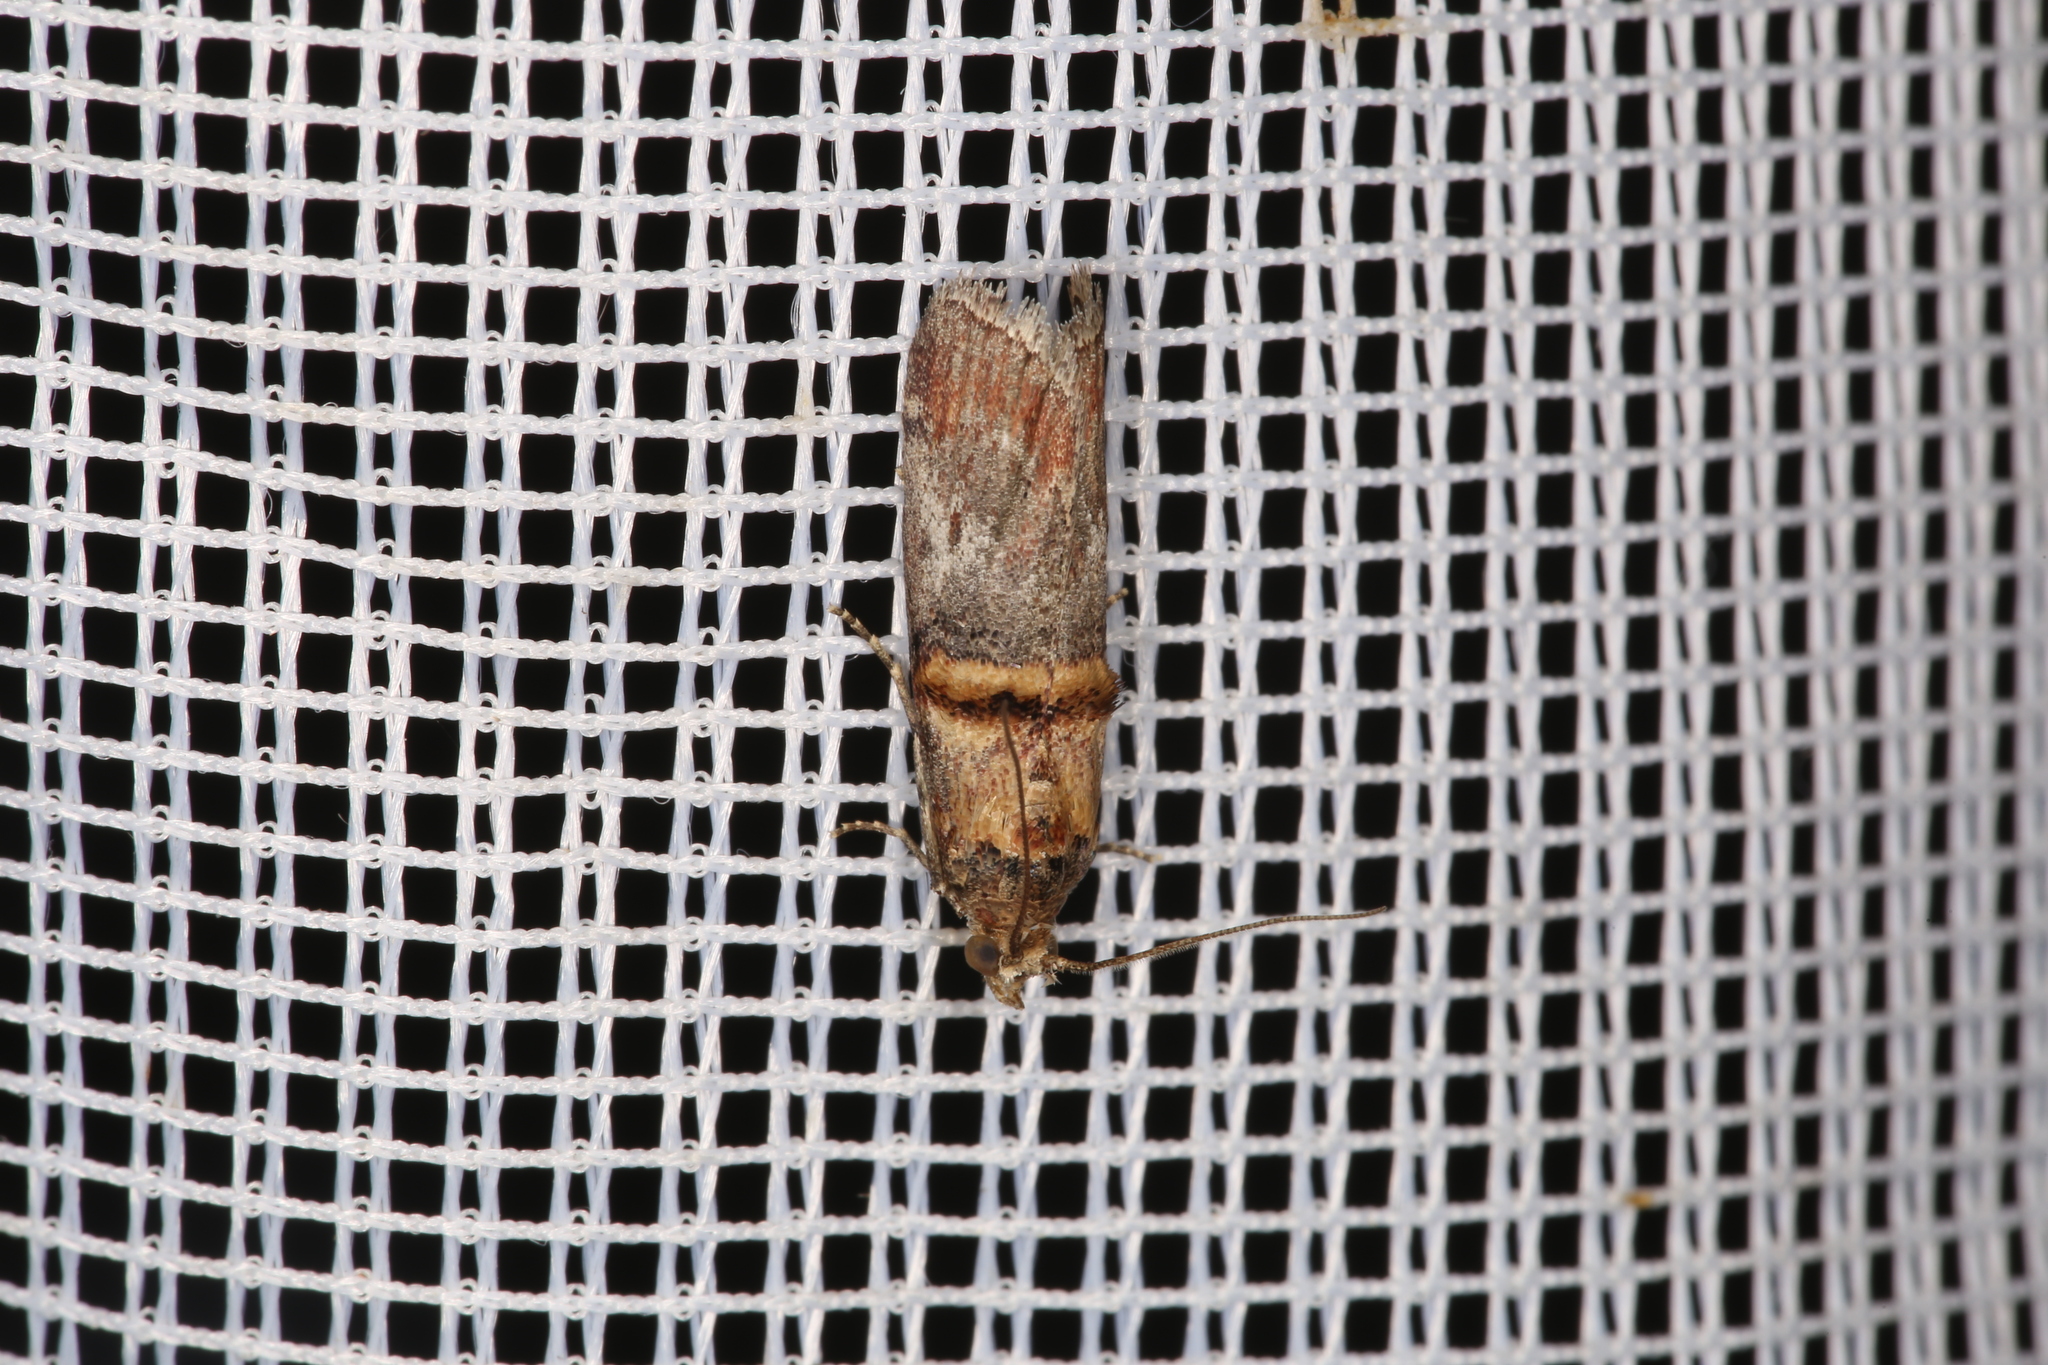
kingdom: Animalia
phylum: Arthropoda
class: Insecta
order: Lepidoptera
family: Pyralidae
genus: Trachonitis
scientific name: Trachonitis cristella
